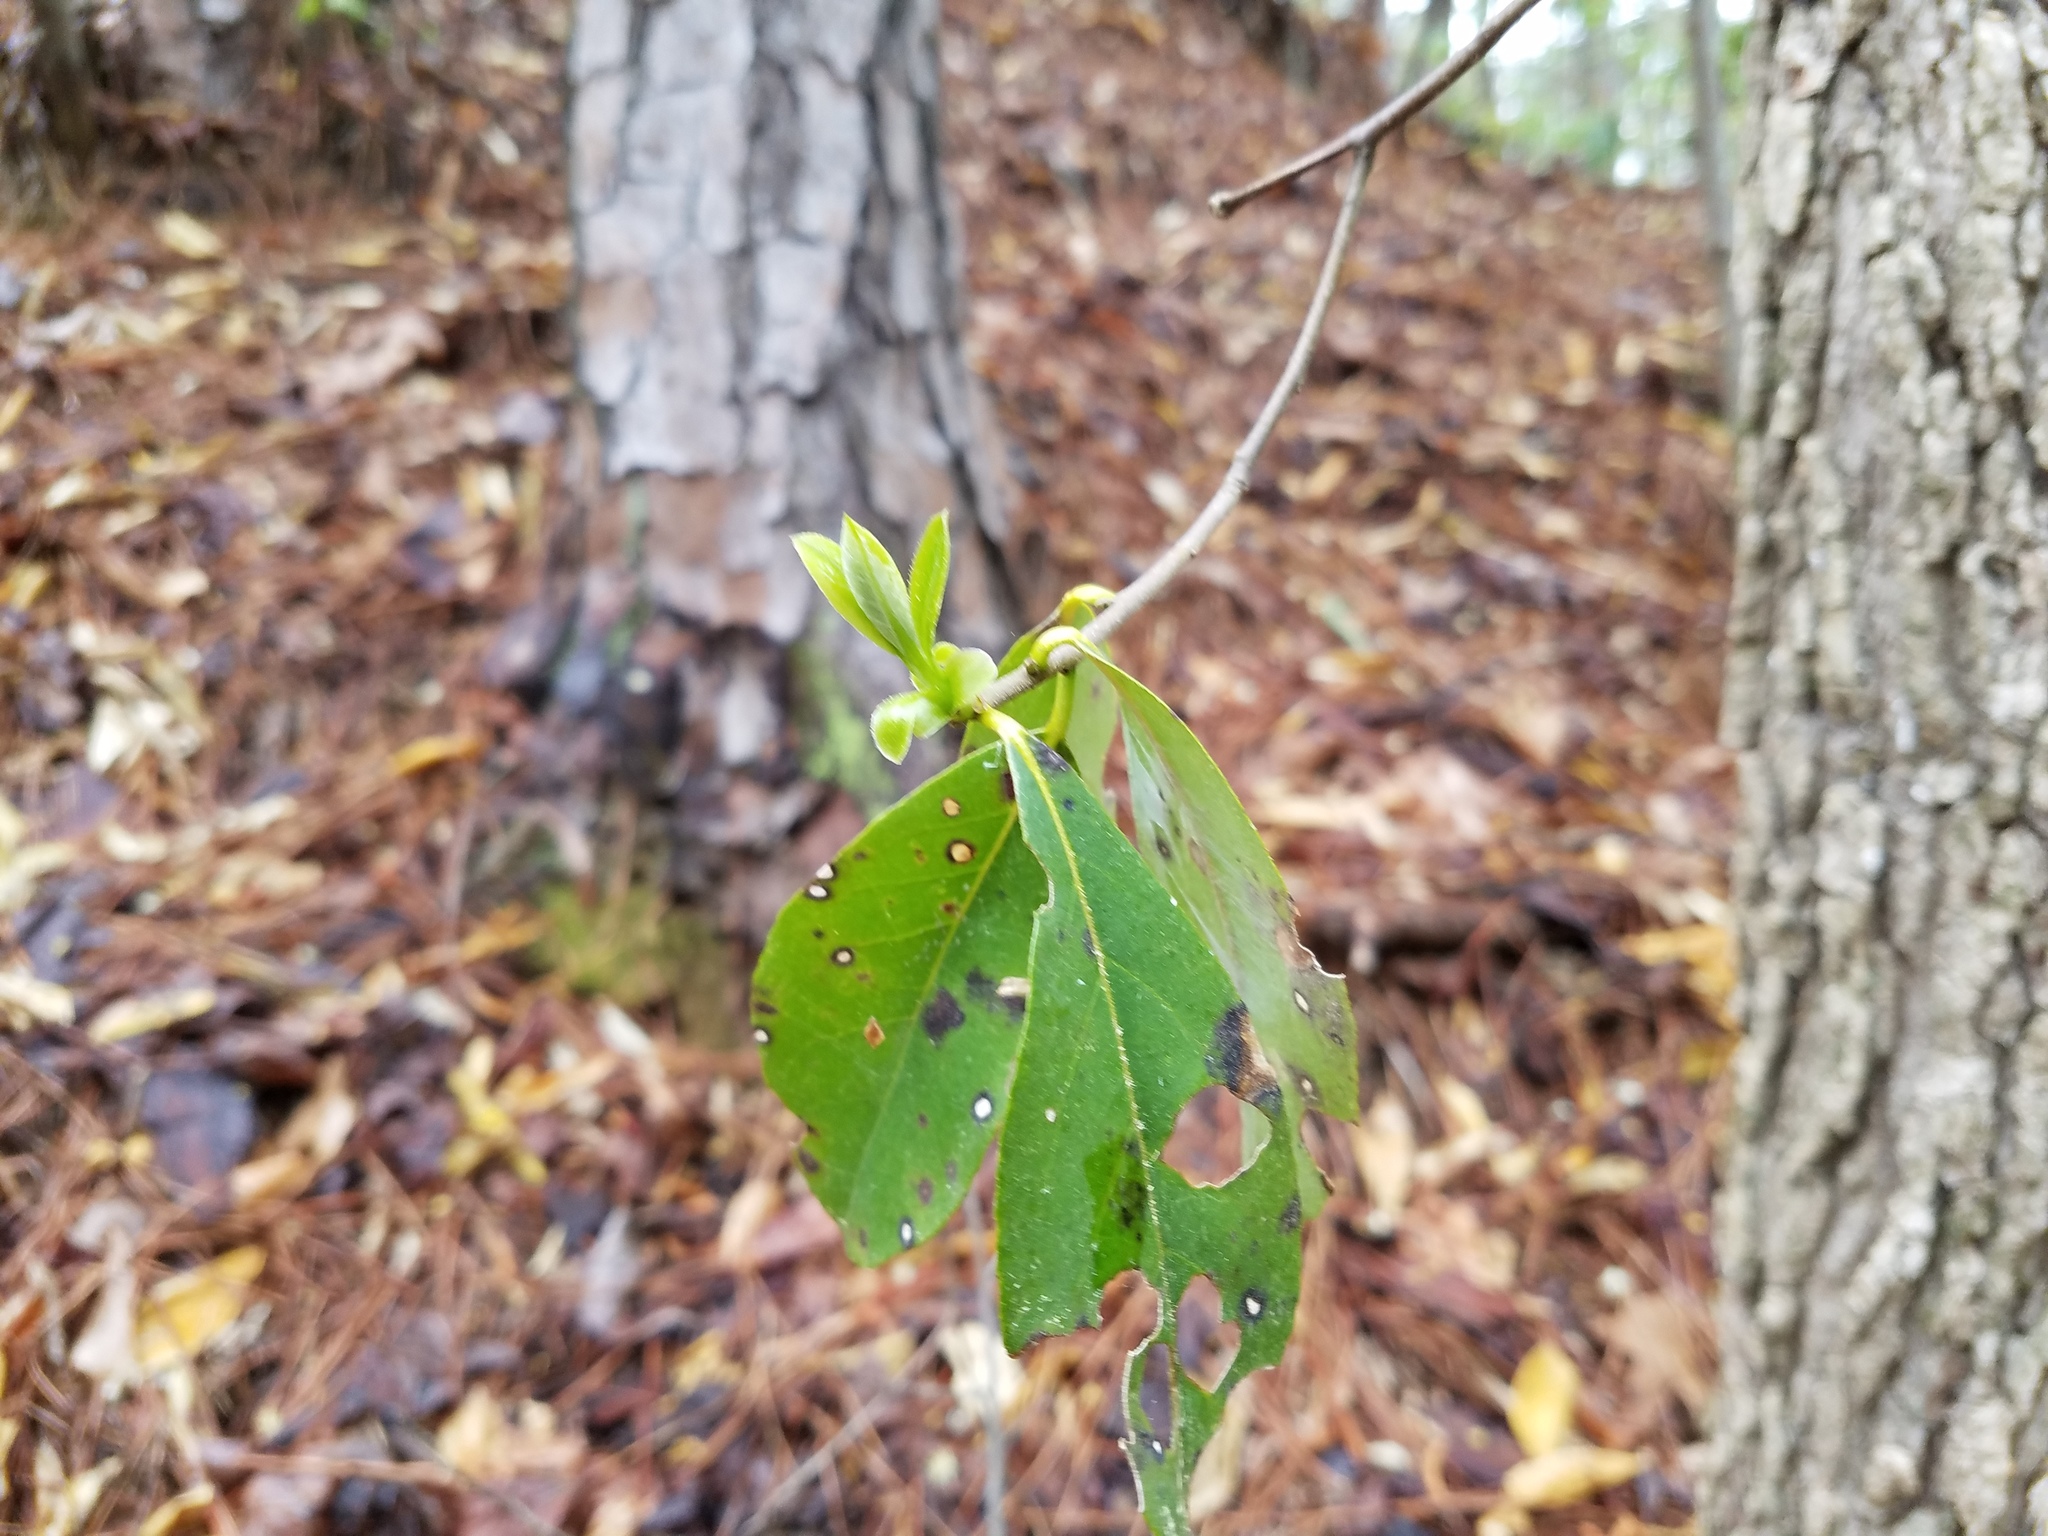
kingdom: Plantae
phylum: Tracheophyta
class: Magnoliopsida
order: Ericales
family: Symplocaceae
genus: Symplocos
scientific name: Symplocos tinctoria
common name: Horse-sugar
